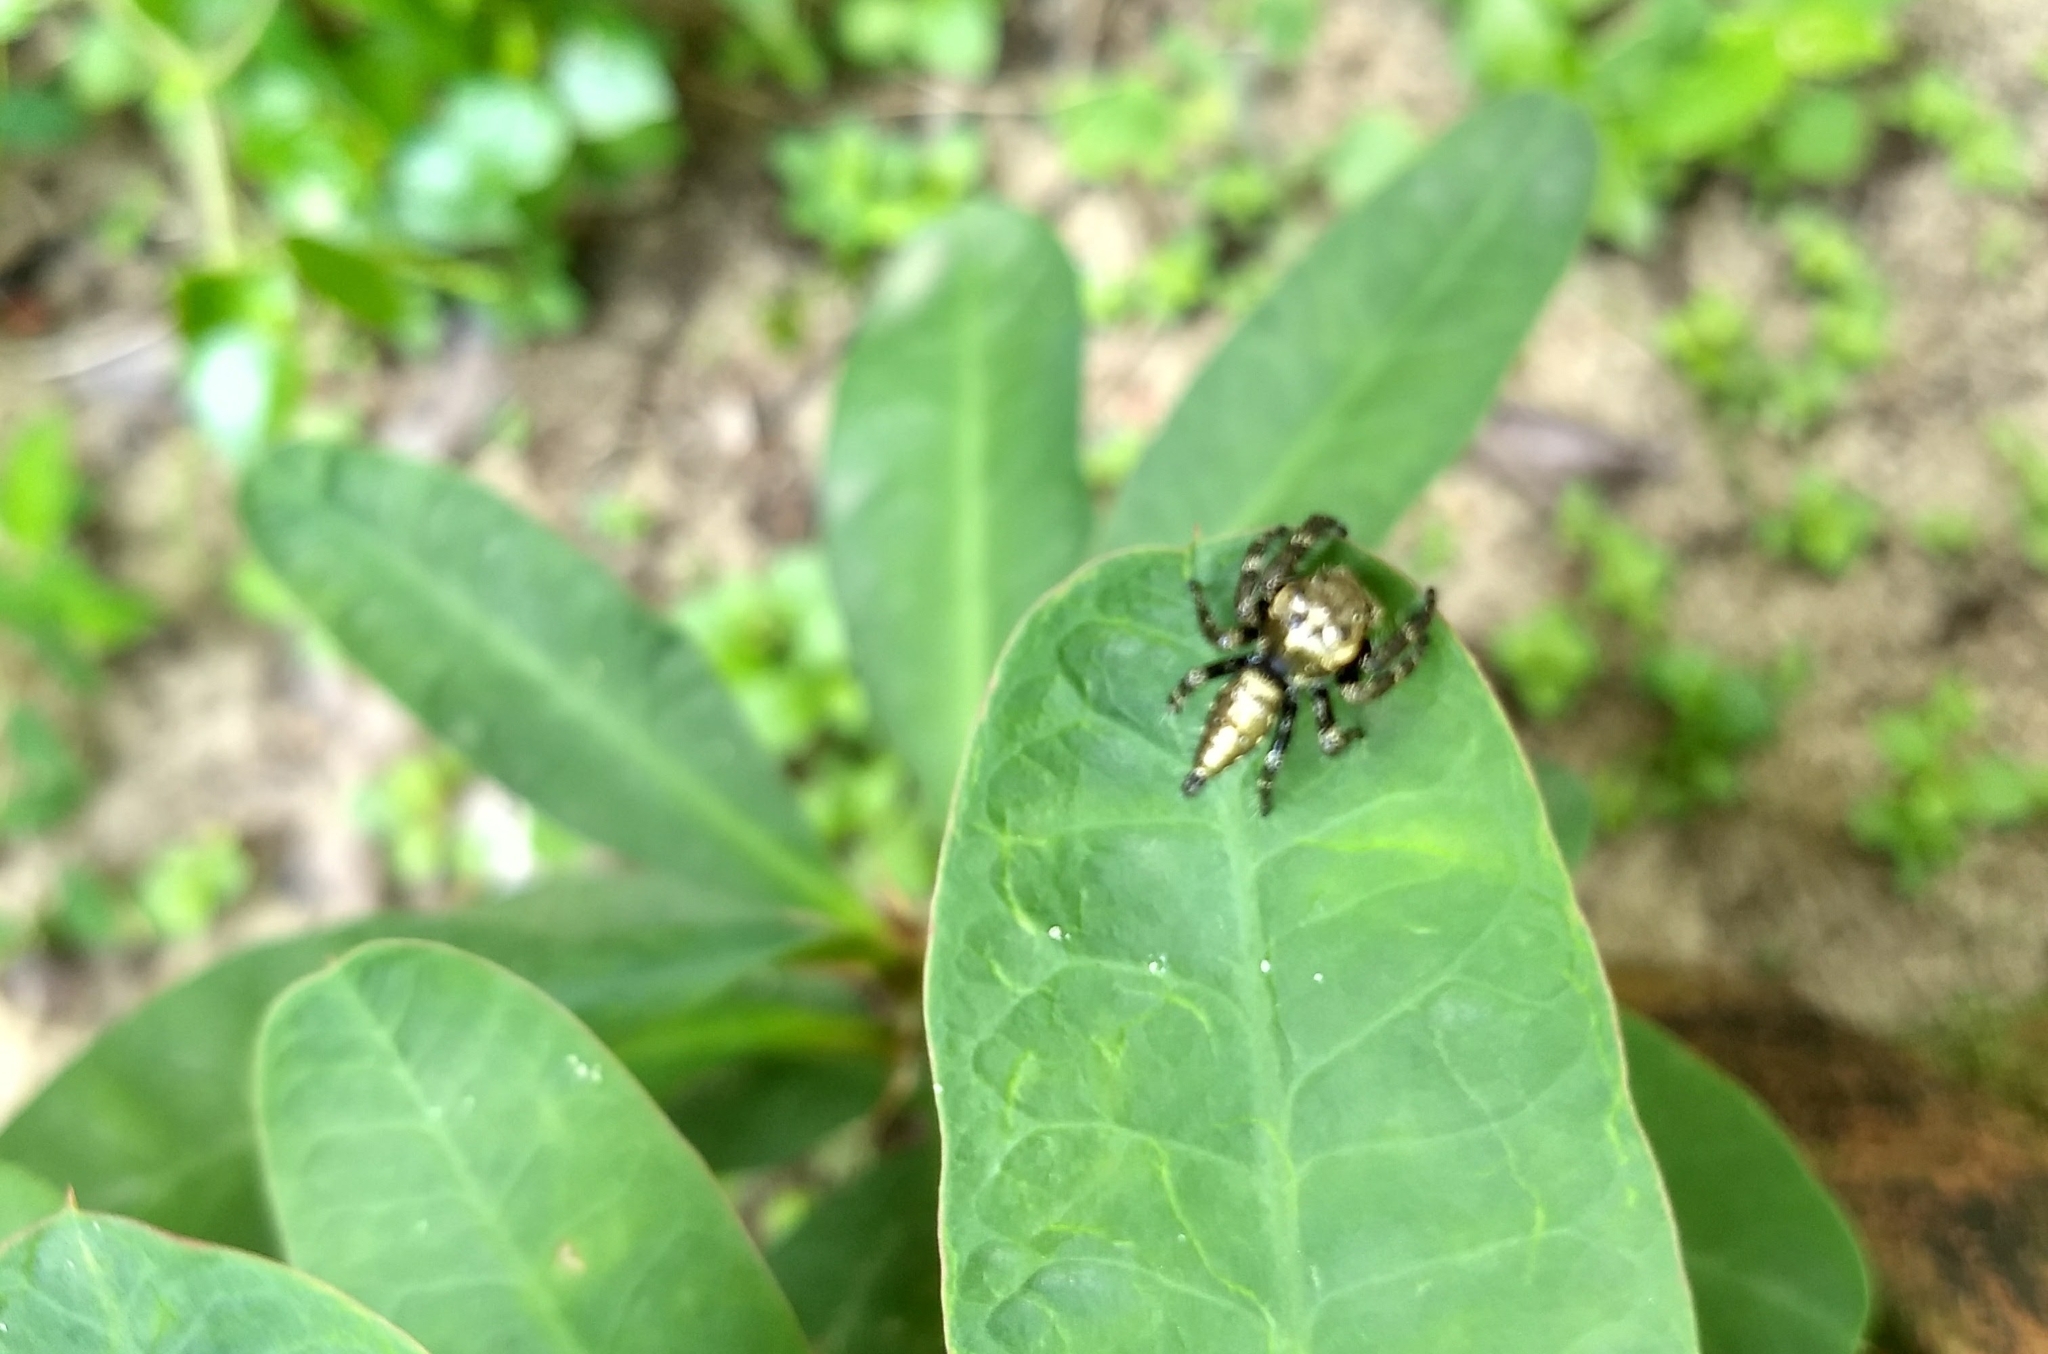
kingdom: Animalia
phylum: Arthropoda
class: Arachnida
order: Araneae
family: Salticidae
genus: Hyllus
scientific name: Hyllus semicupreus
